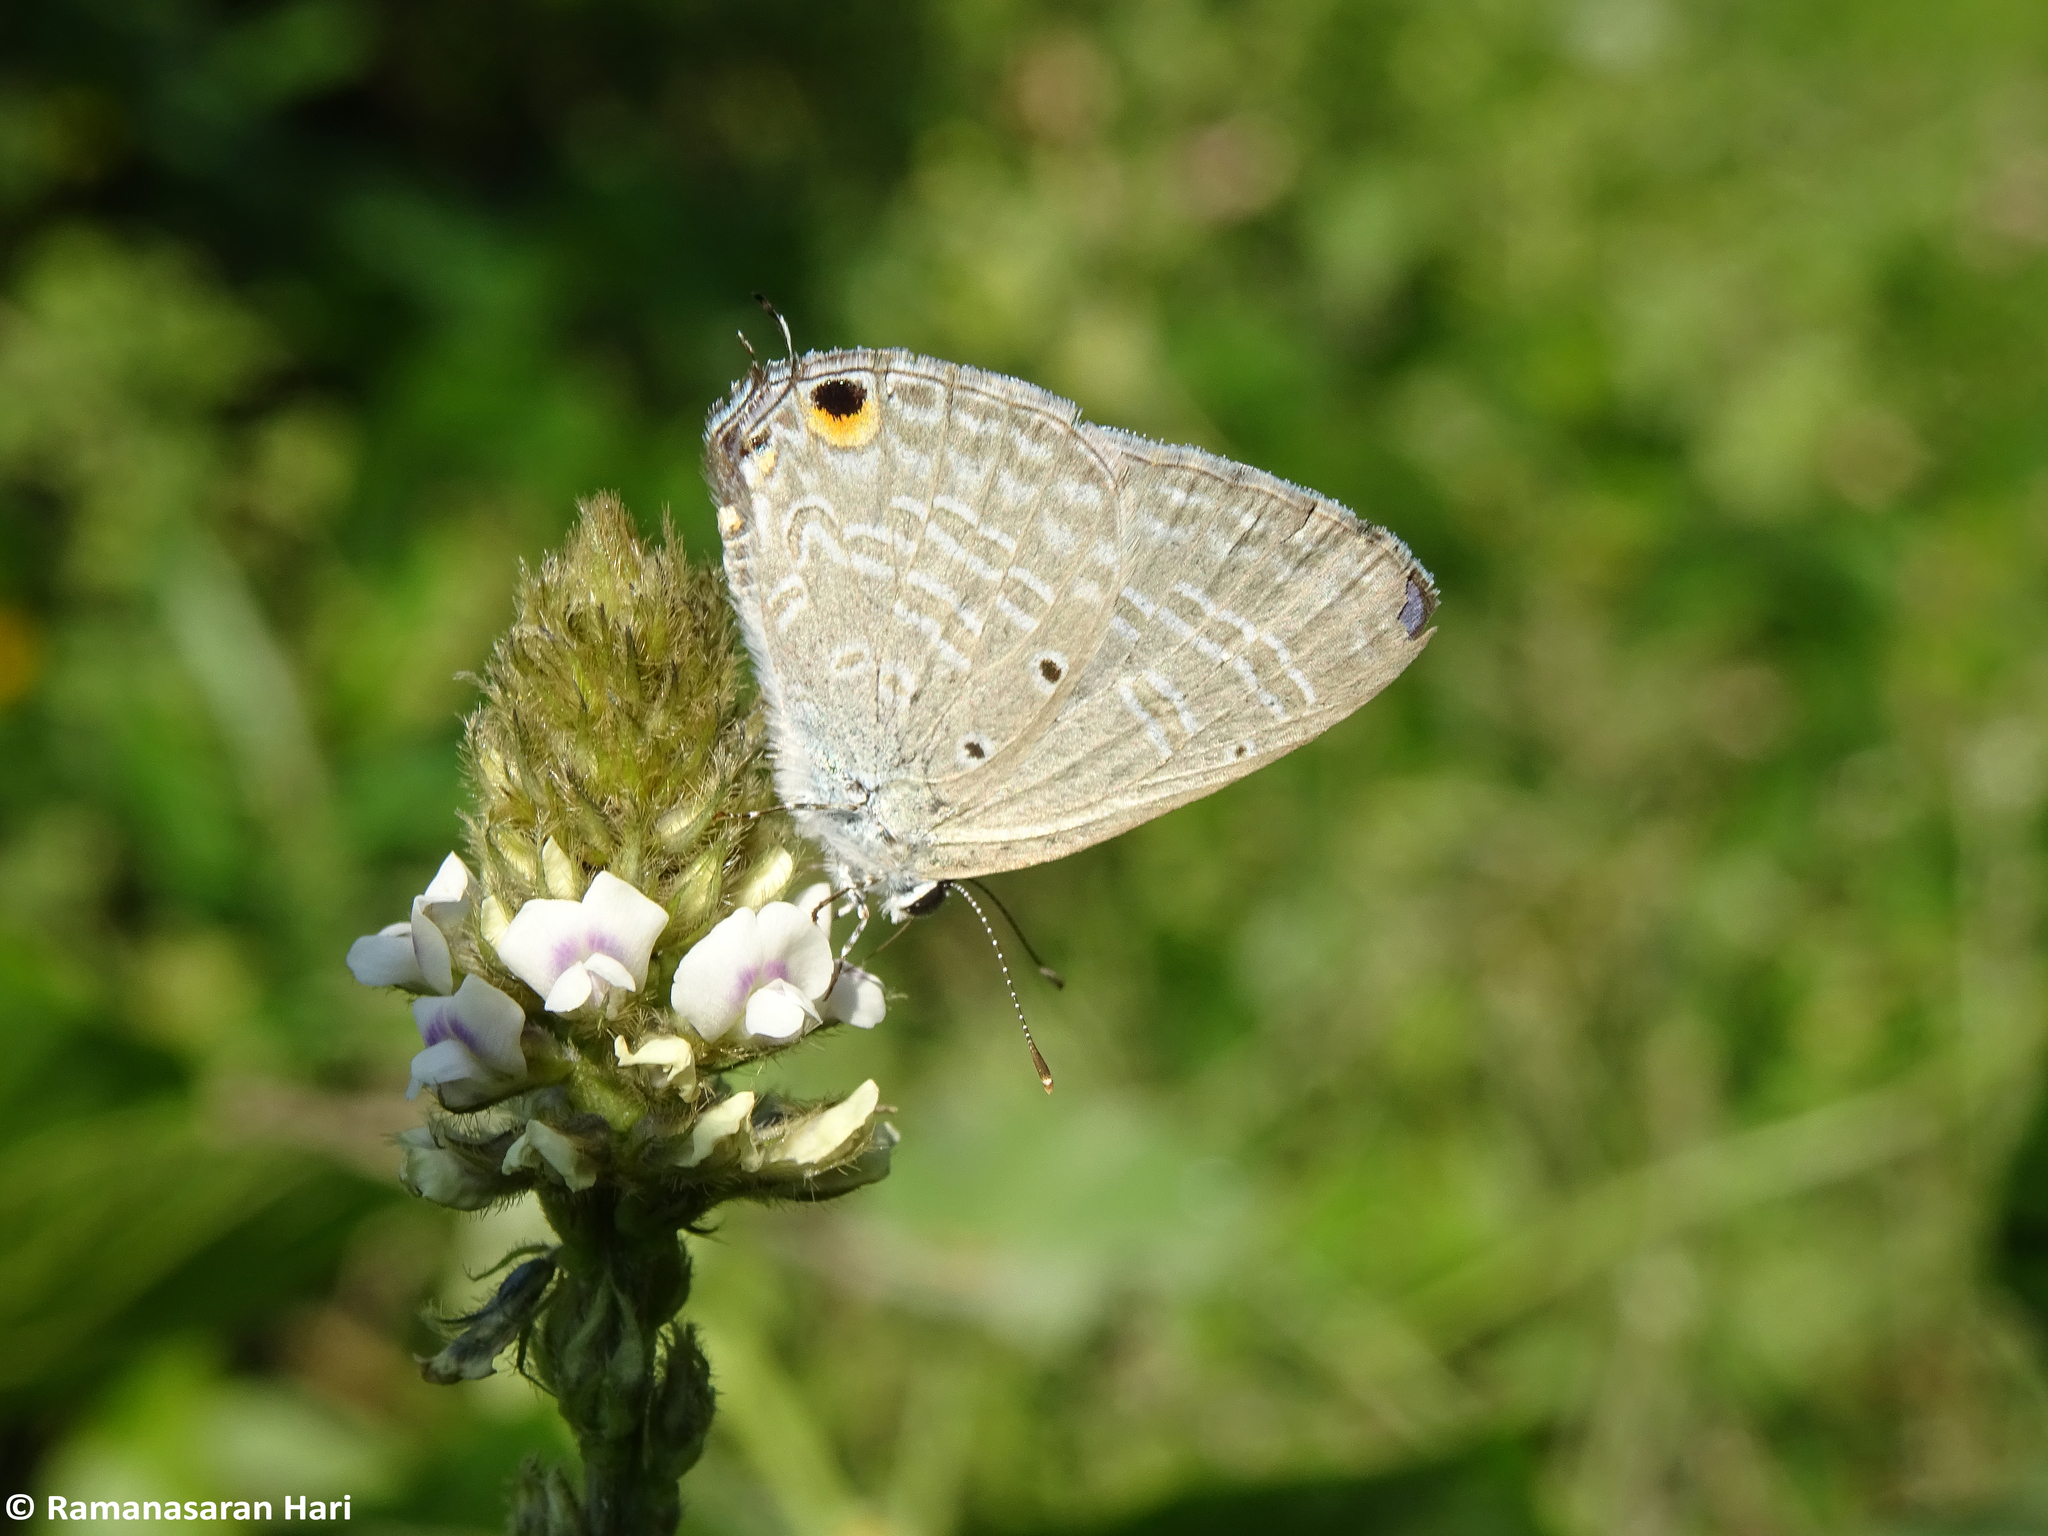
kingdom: Animalia
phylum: Arthropoda
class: Insecta
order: Lepidoptera
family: Lycaenidae
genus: Catochrysops
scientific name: Catochrysops strabo
